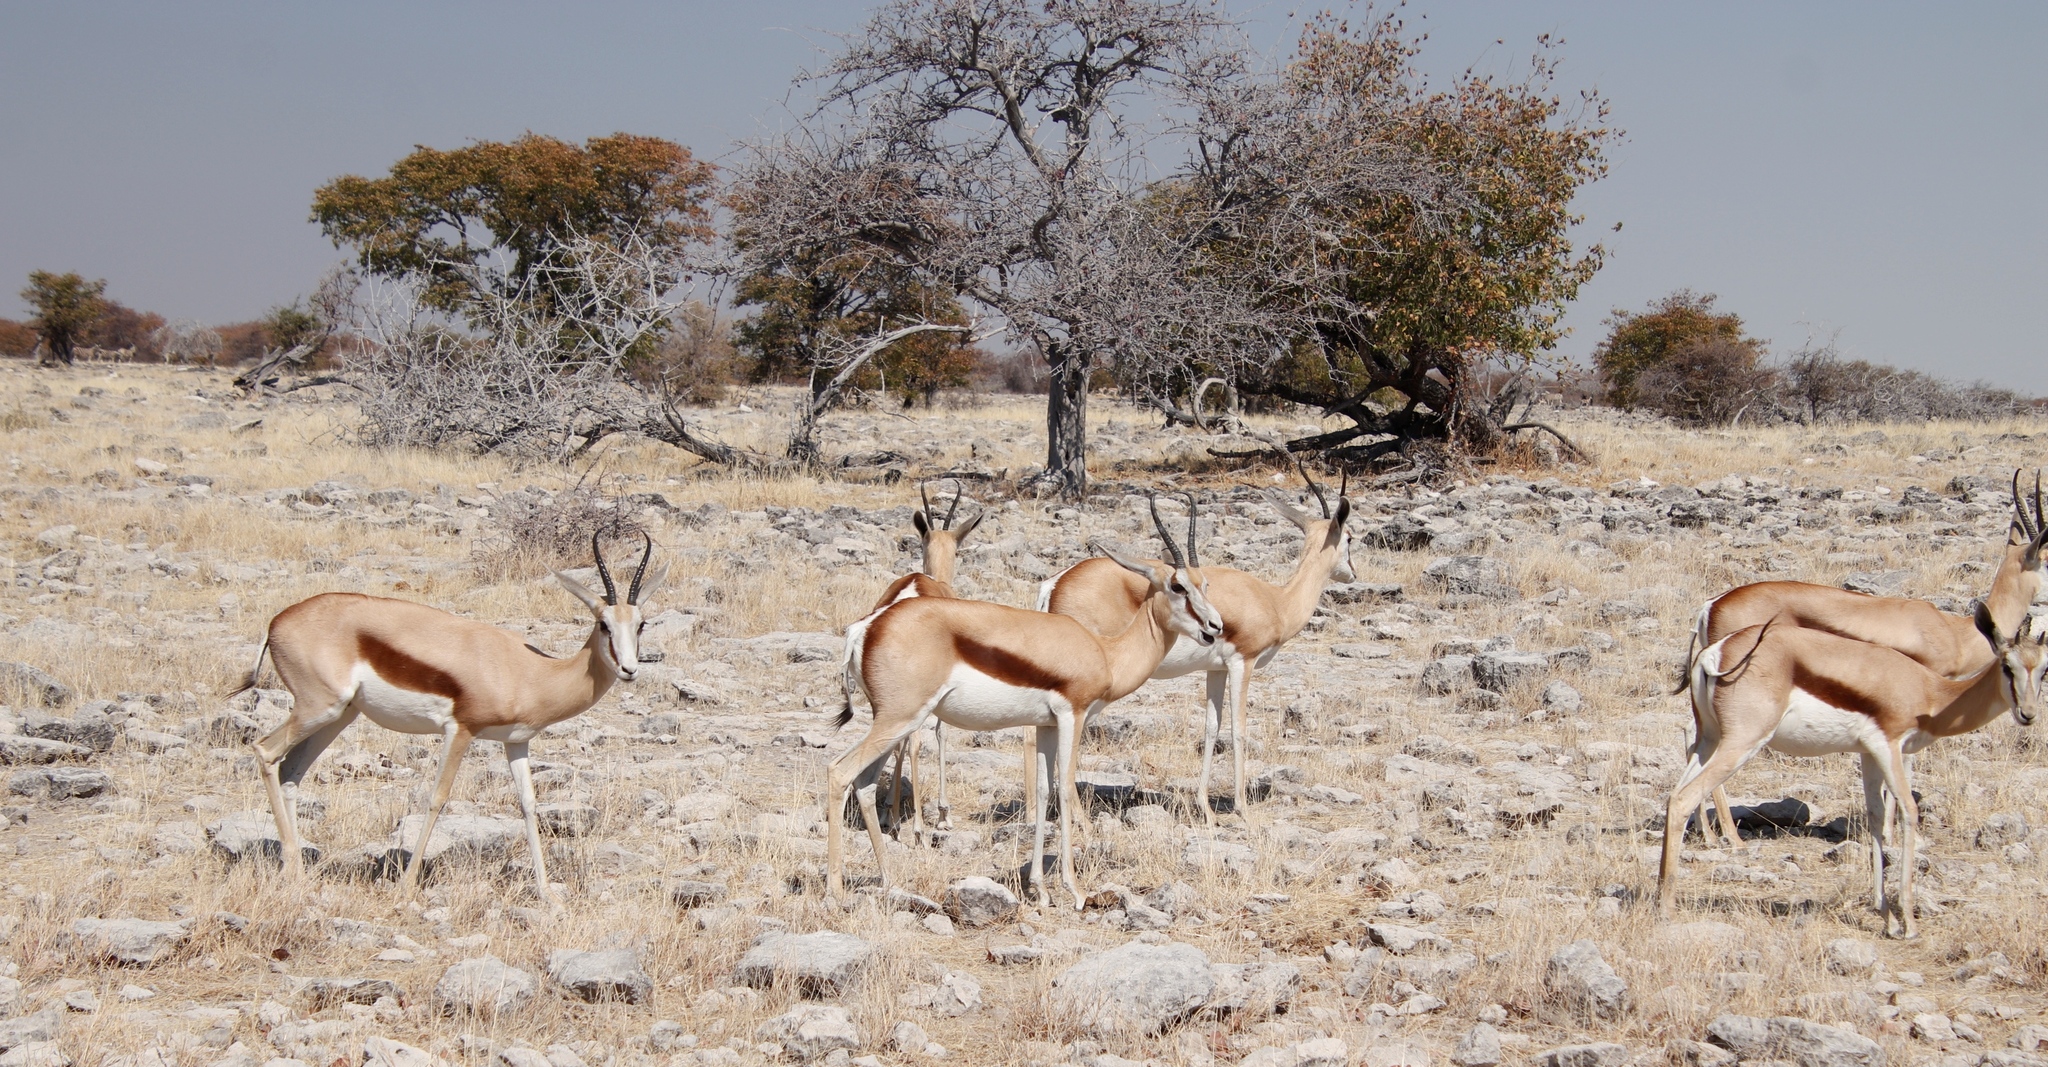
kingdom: Animalia
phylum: Chordata
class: Mammalia
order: Artiodactyla
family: Bovidae
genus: Antidorcas
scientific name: Antidorcas marsupialis
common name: Springbok
